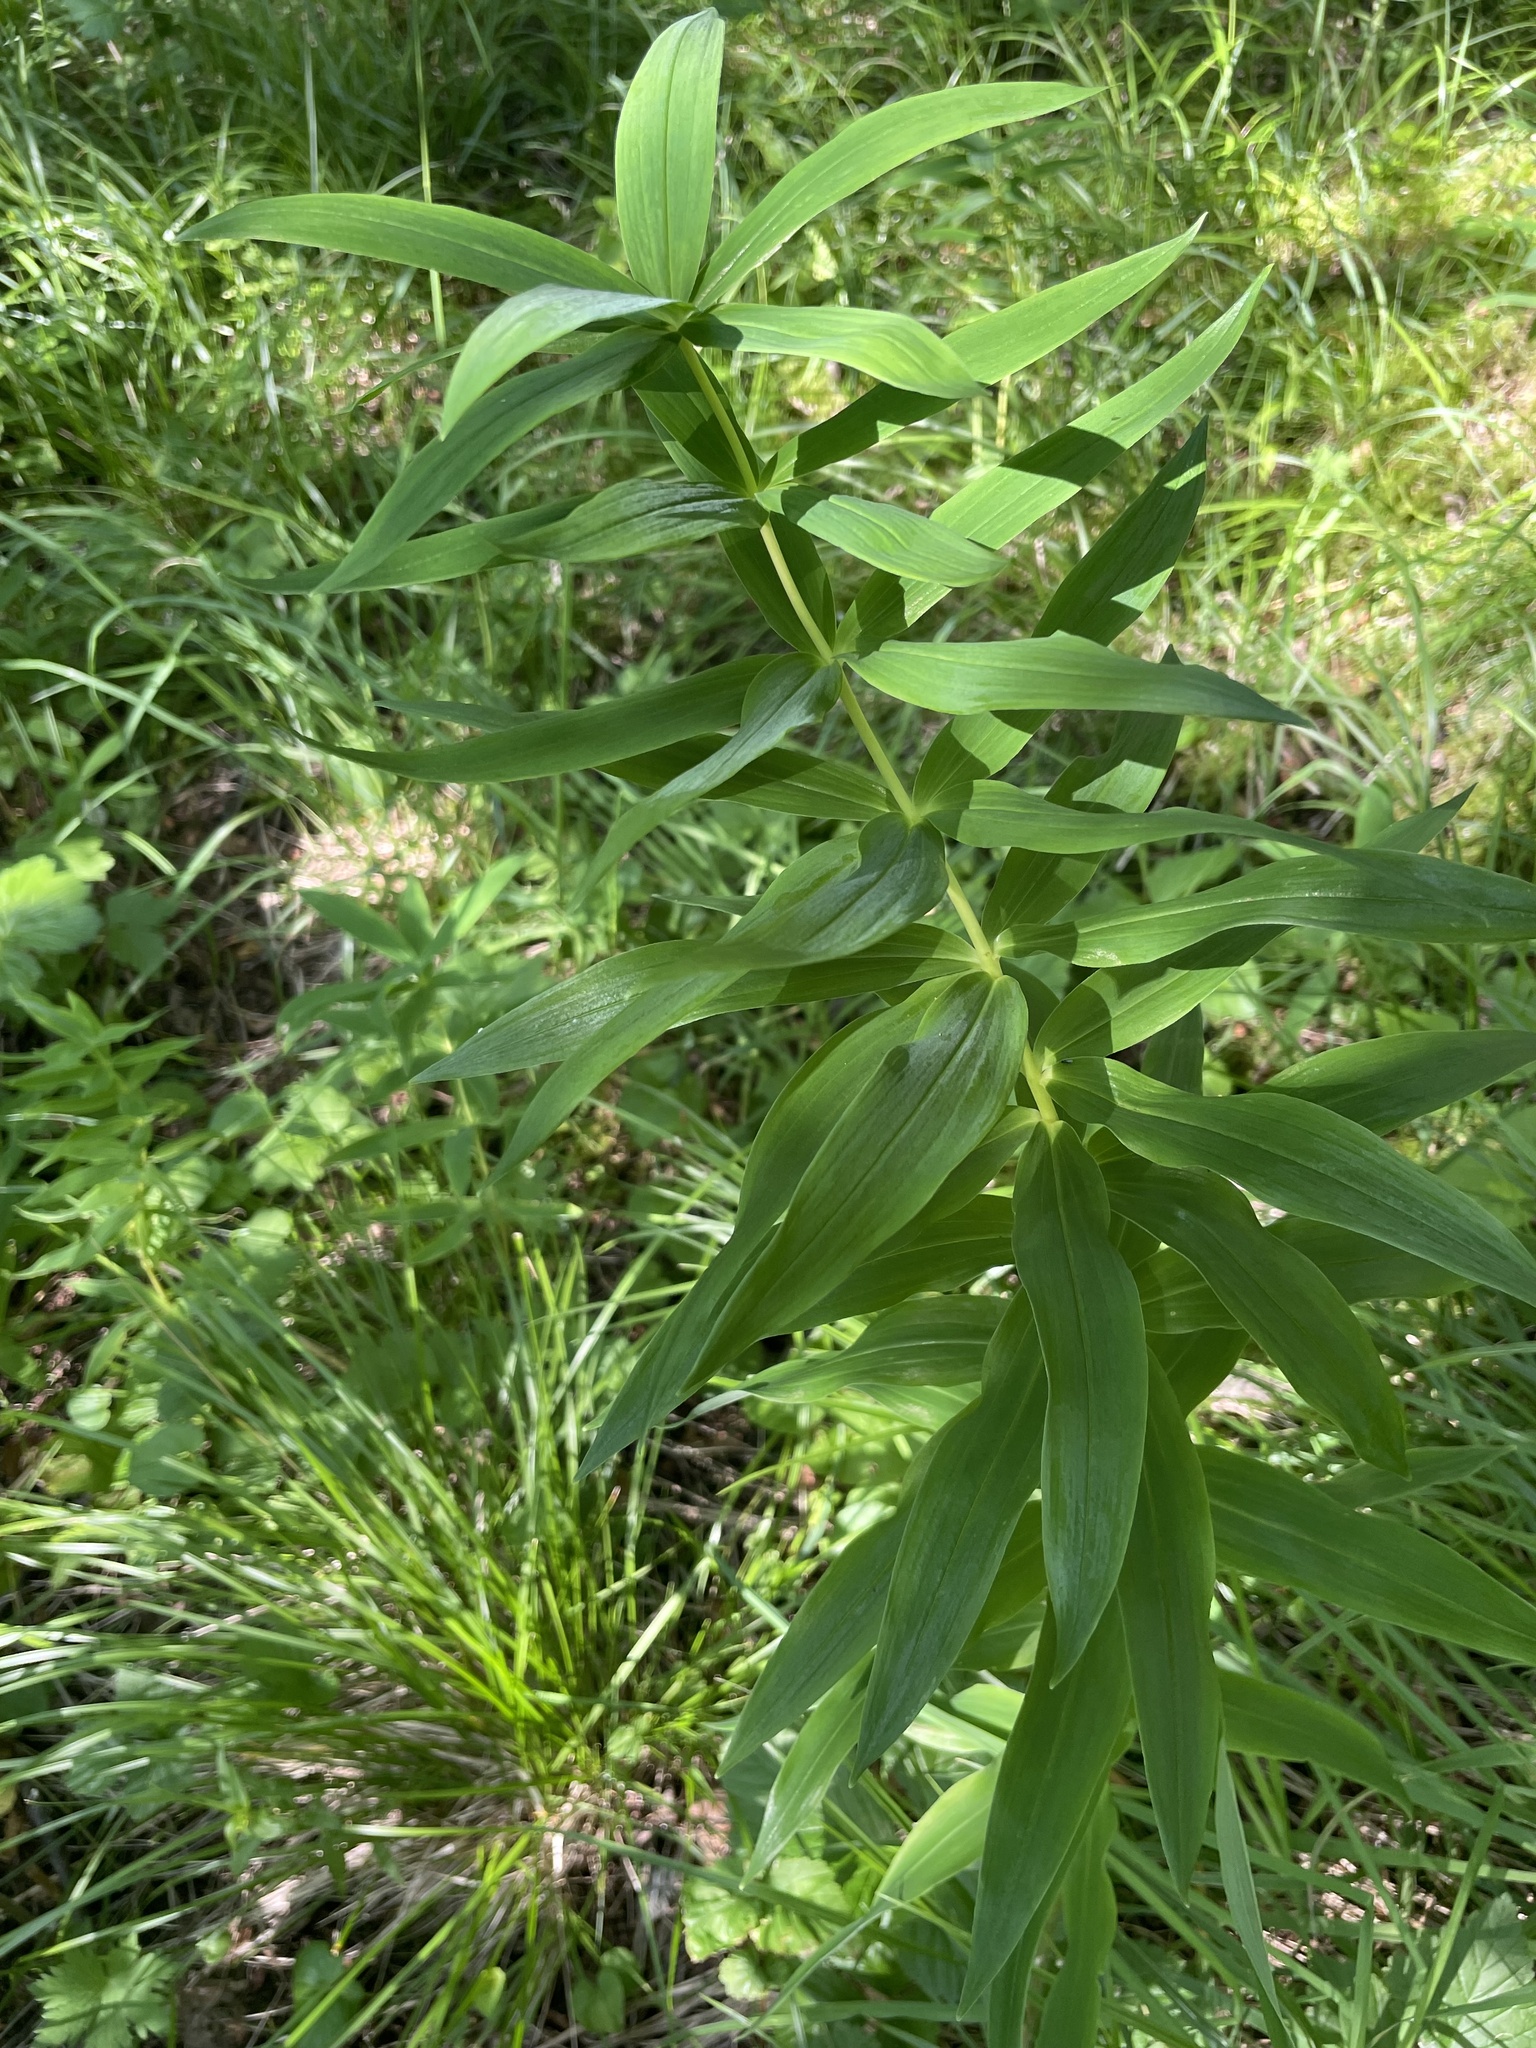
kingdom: Plantae
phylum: Tracheophyta
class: Liliopsida
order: Asparagales
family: Asparagaceae
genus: Polygonatum
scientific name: Polygonatum verticillatum
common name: Whorled solomon's-seal
